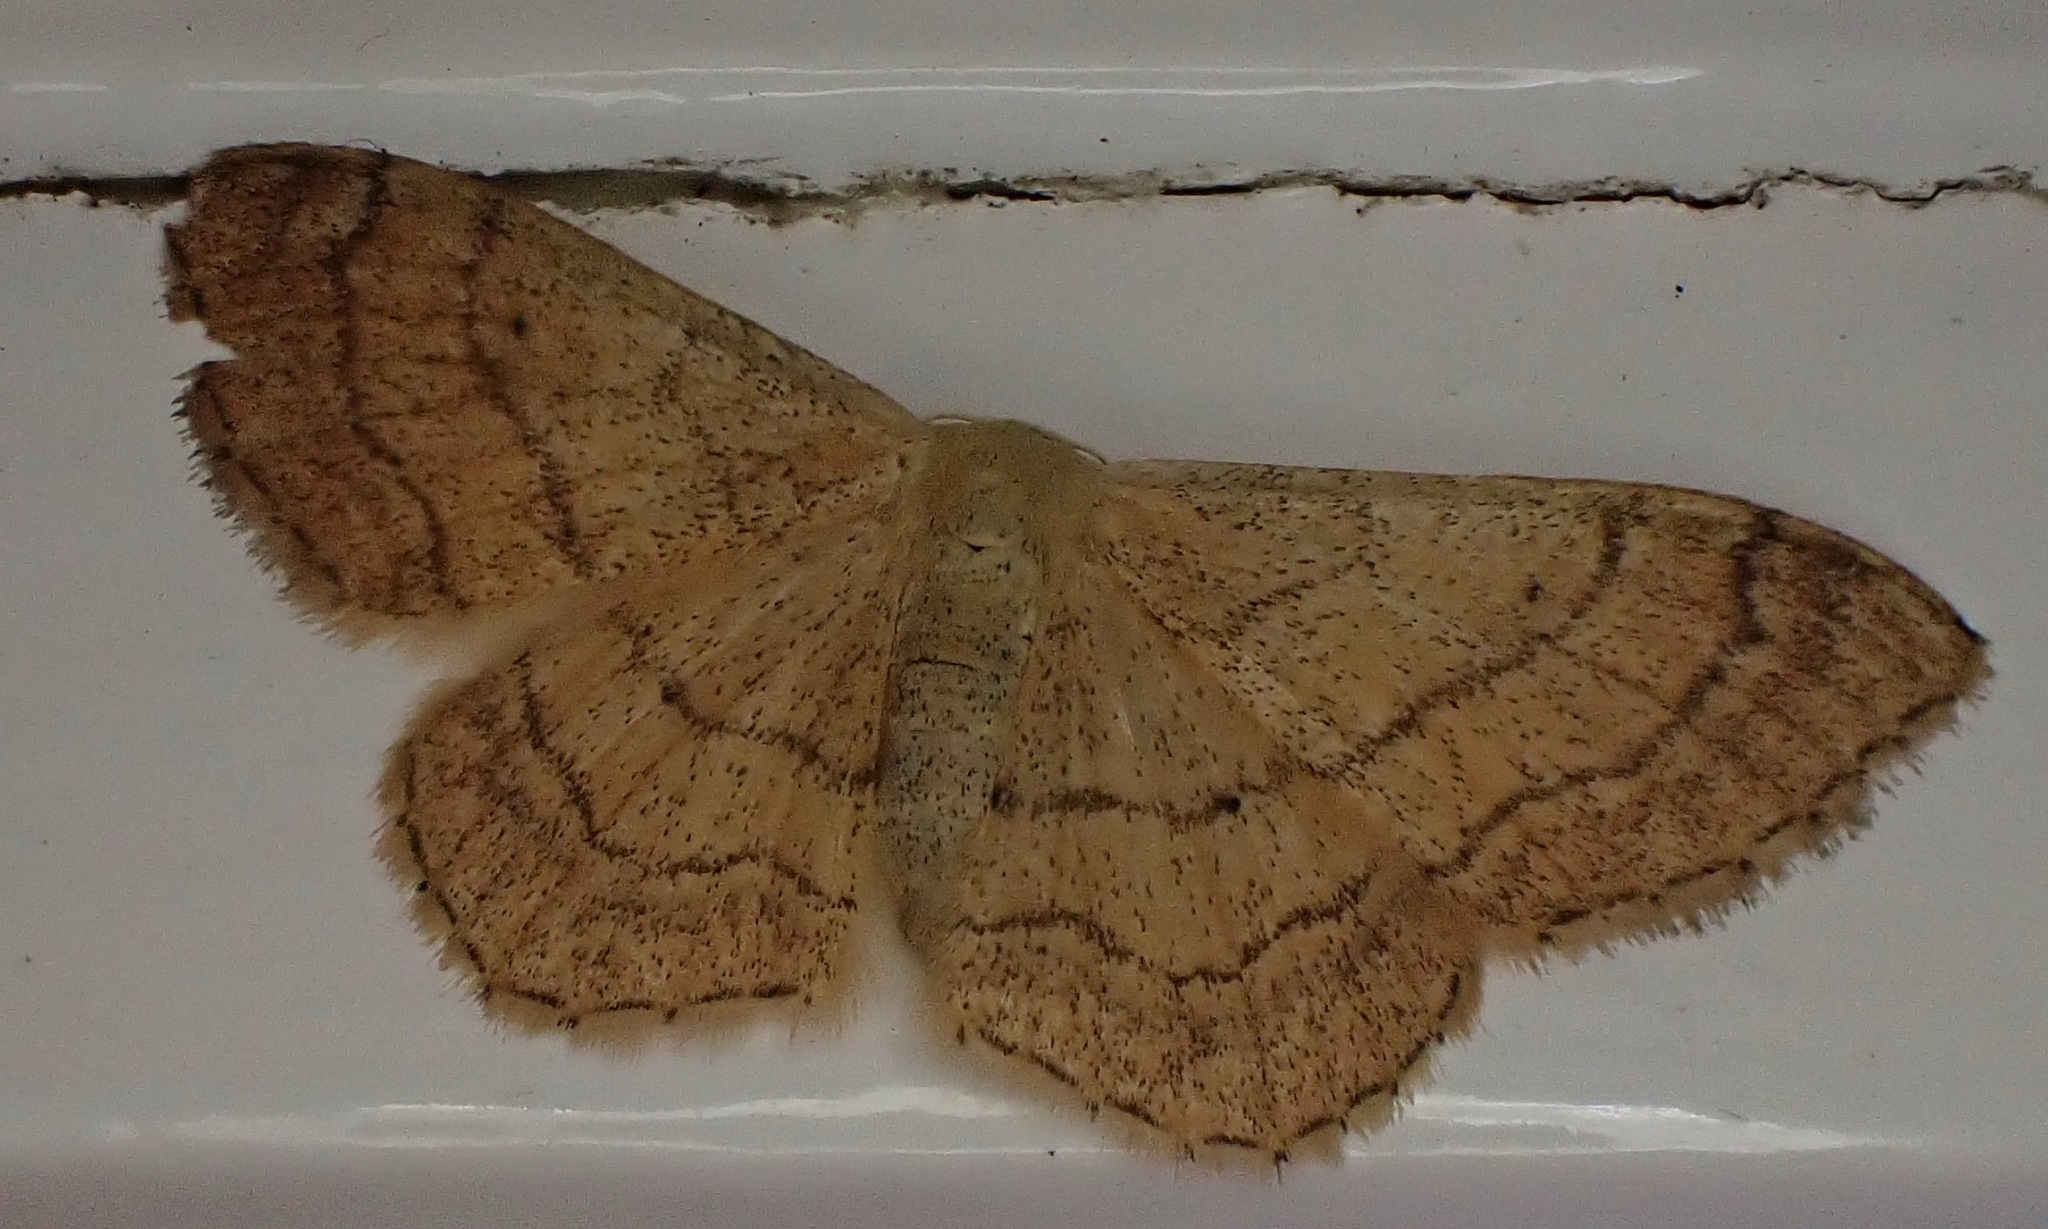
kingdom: Animalia
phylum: Arthropoda
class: Insecta
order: Lepidoptera
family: Geometridae
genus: Idaea
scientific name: Idaea aversata
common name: Riband wave
